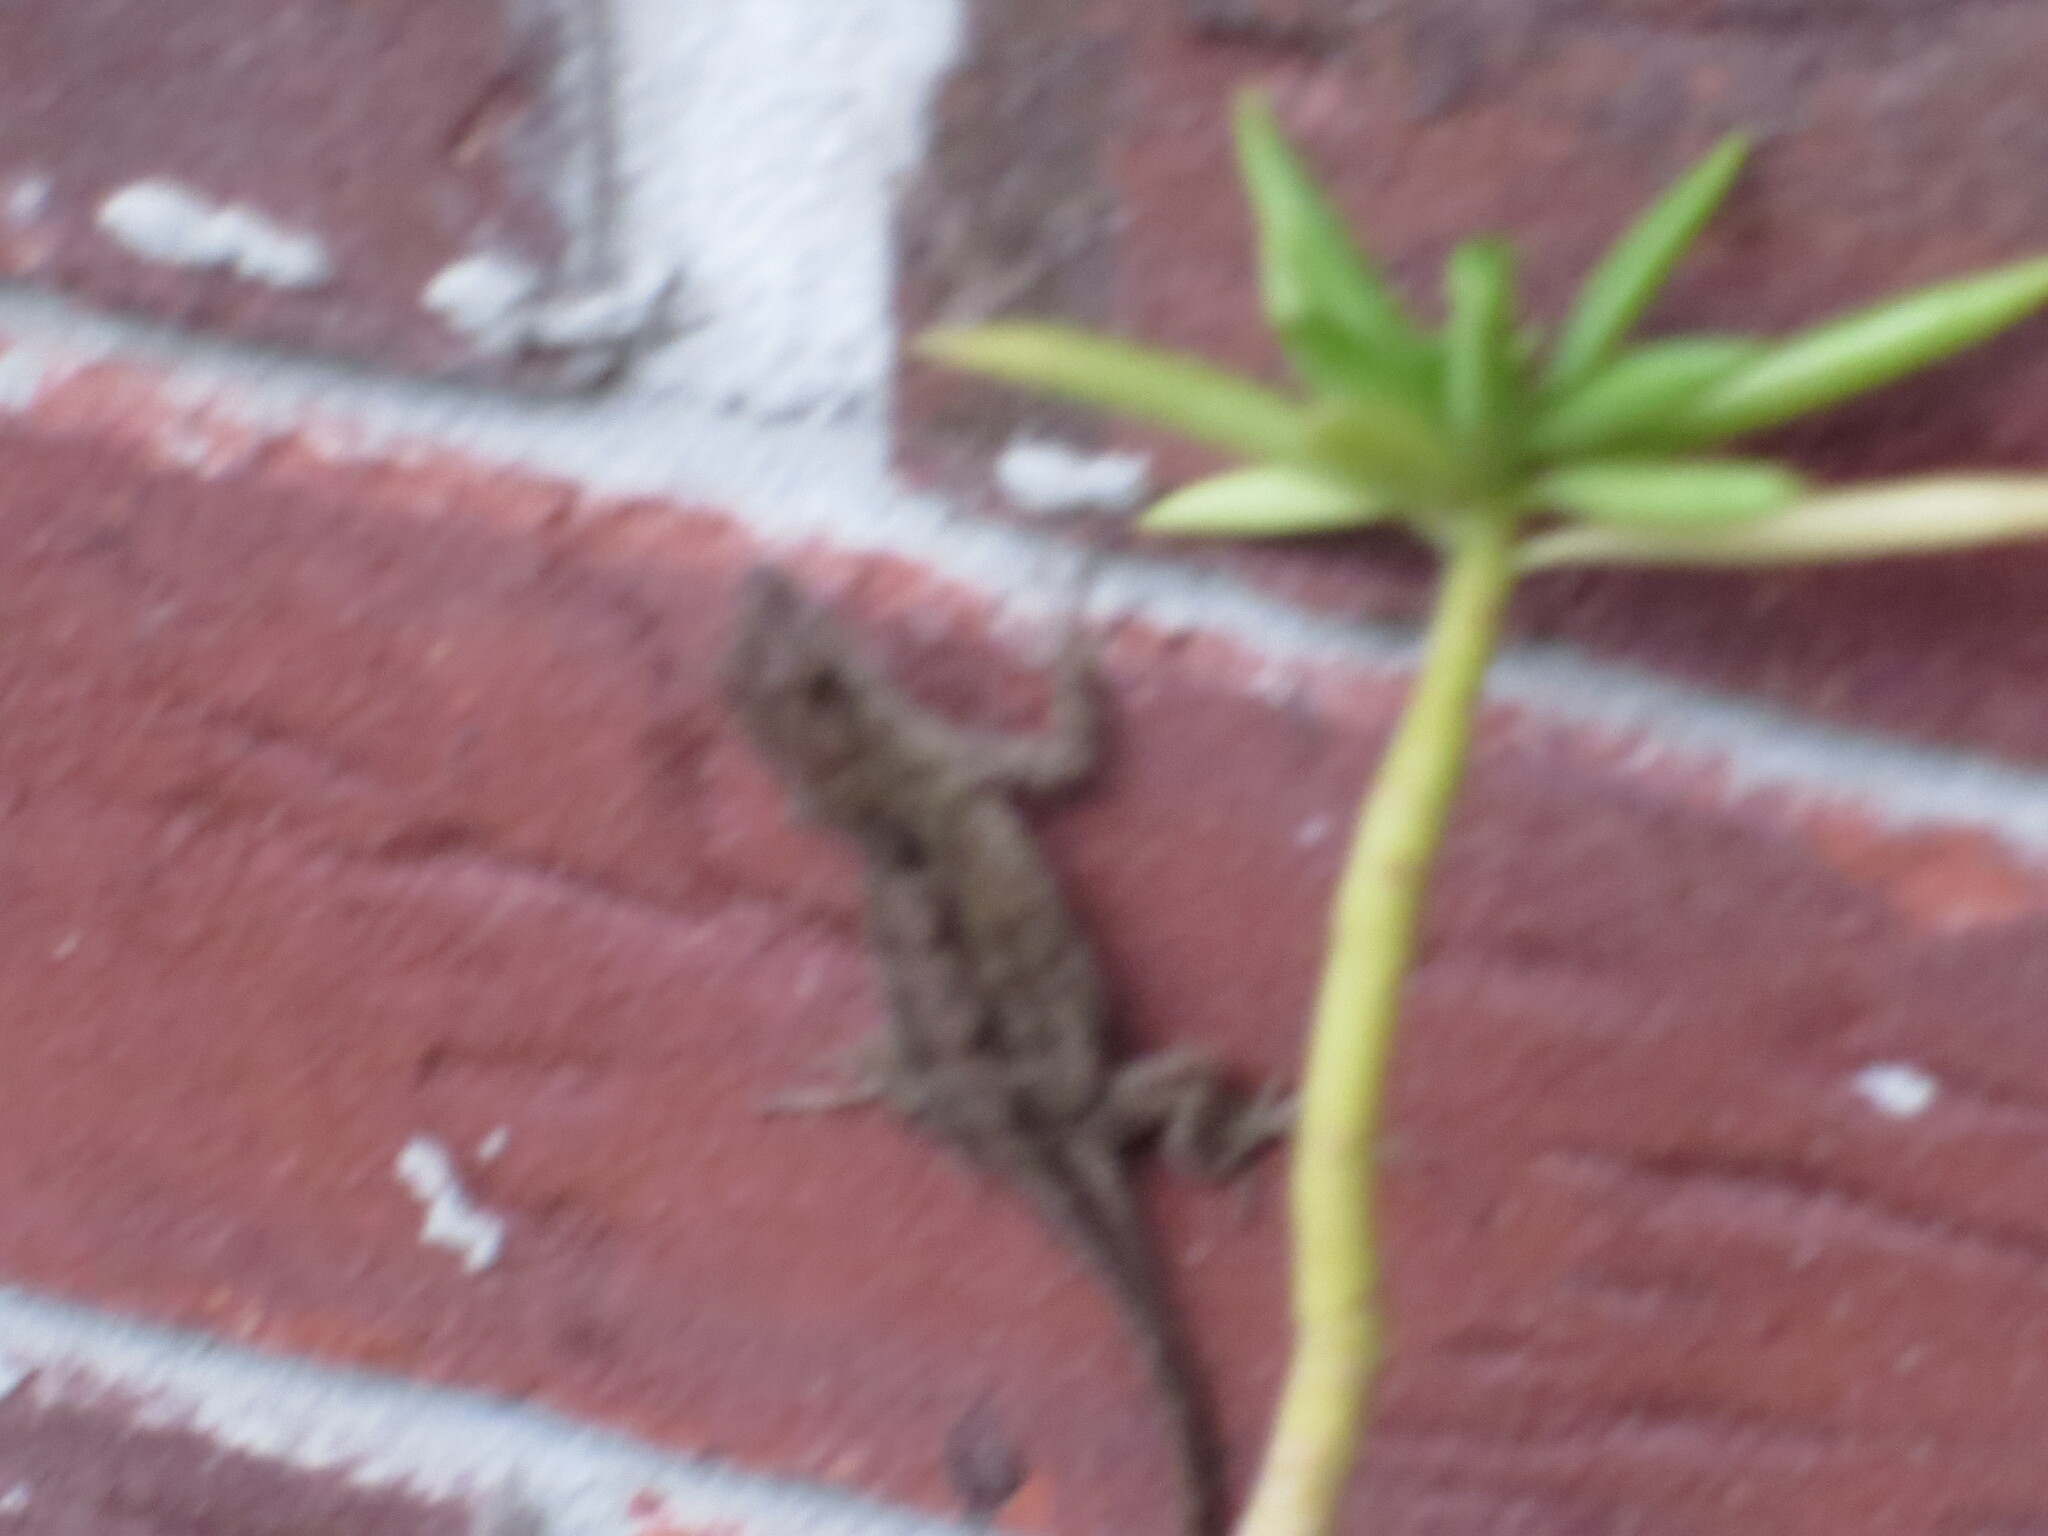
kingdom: Animalia
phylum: Chordata
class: Squamata
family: Dactyloidae
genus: Anolis
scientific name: Anolis sagrei
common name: Brown anole
